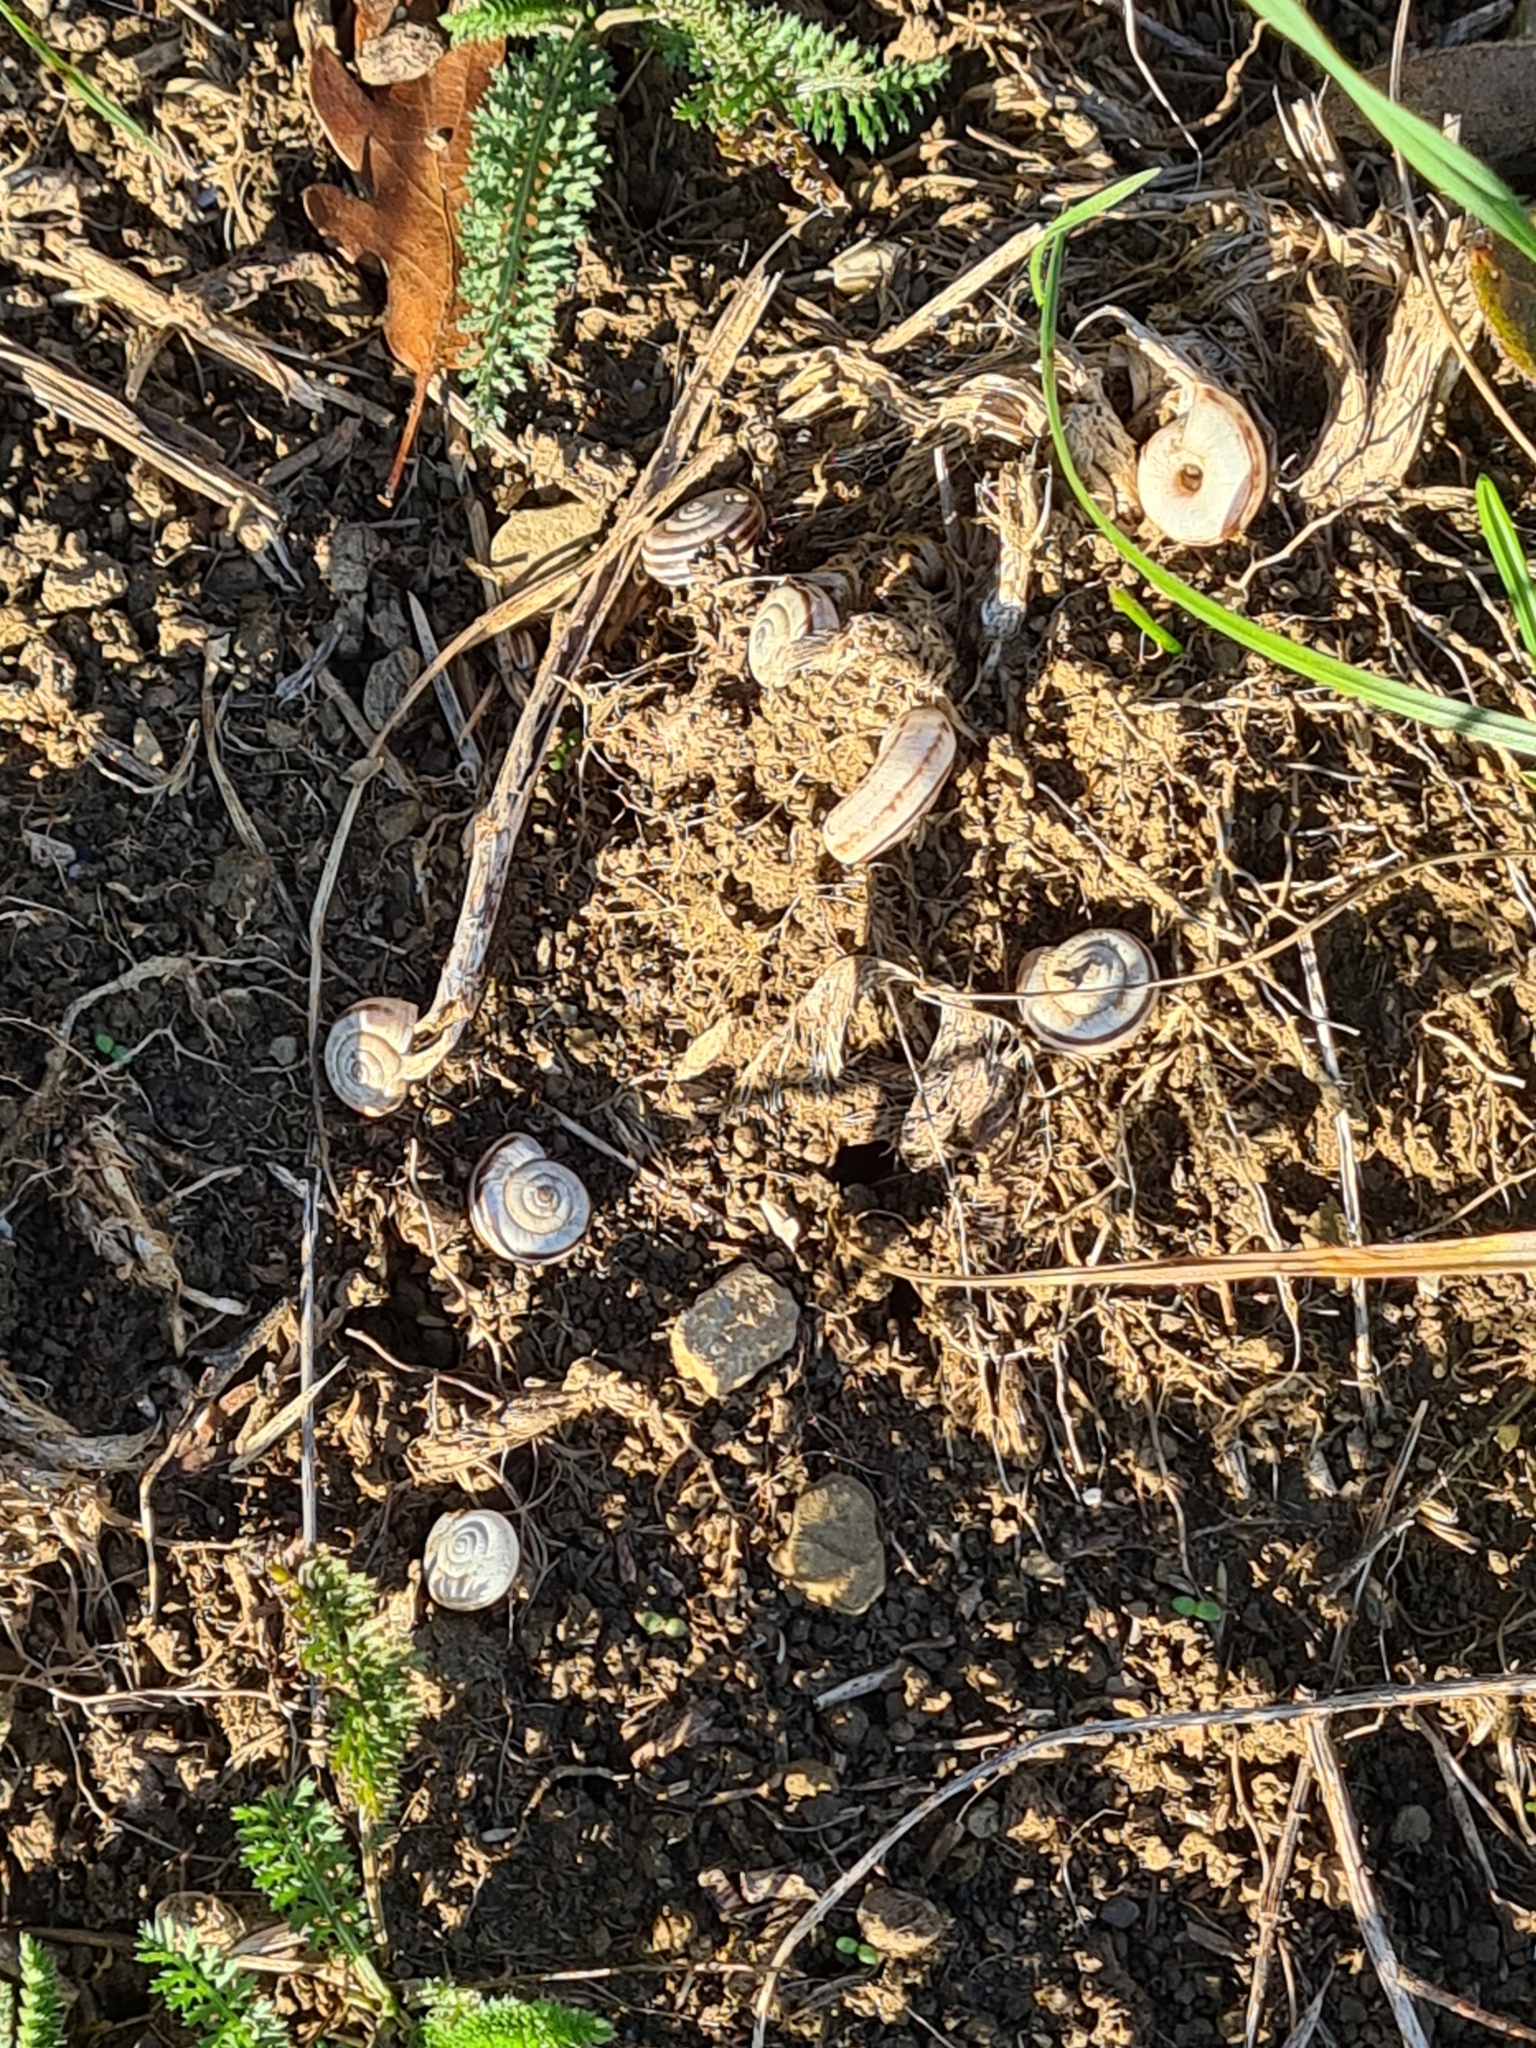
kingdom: Animalia
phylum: Mollusca
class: Gastropoda
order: Stylommatophora
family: Geomitridae
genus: Xerolenta
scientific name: Xerolenta obvia
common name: White heath snail
